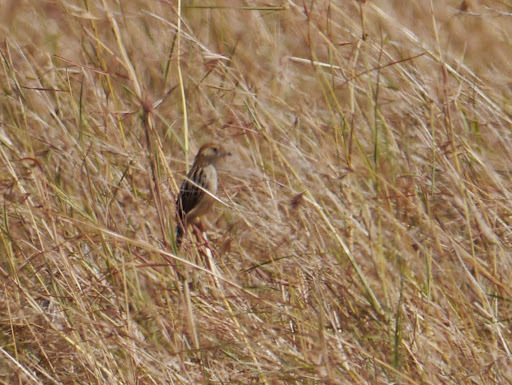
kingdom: Animalia
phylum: Chordata
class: Aves
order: Passeriformes
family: Cisticolidae
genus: Cisticola
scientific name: Cisticola robustus
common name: Stout cisticola
